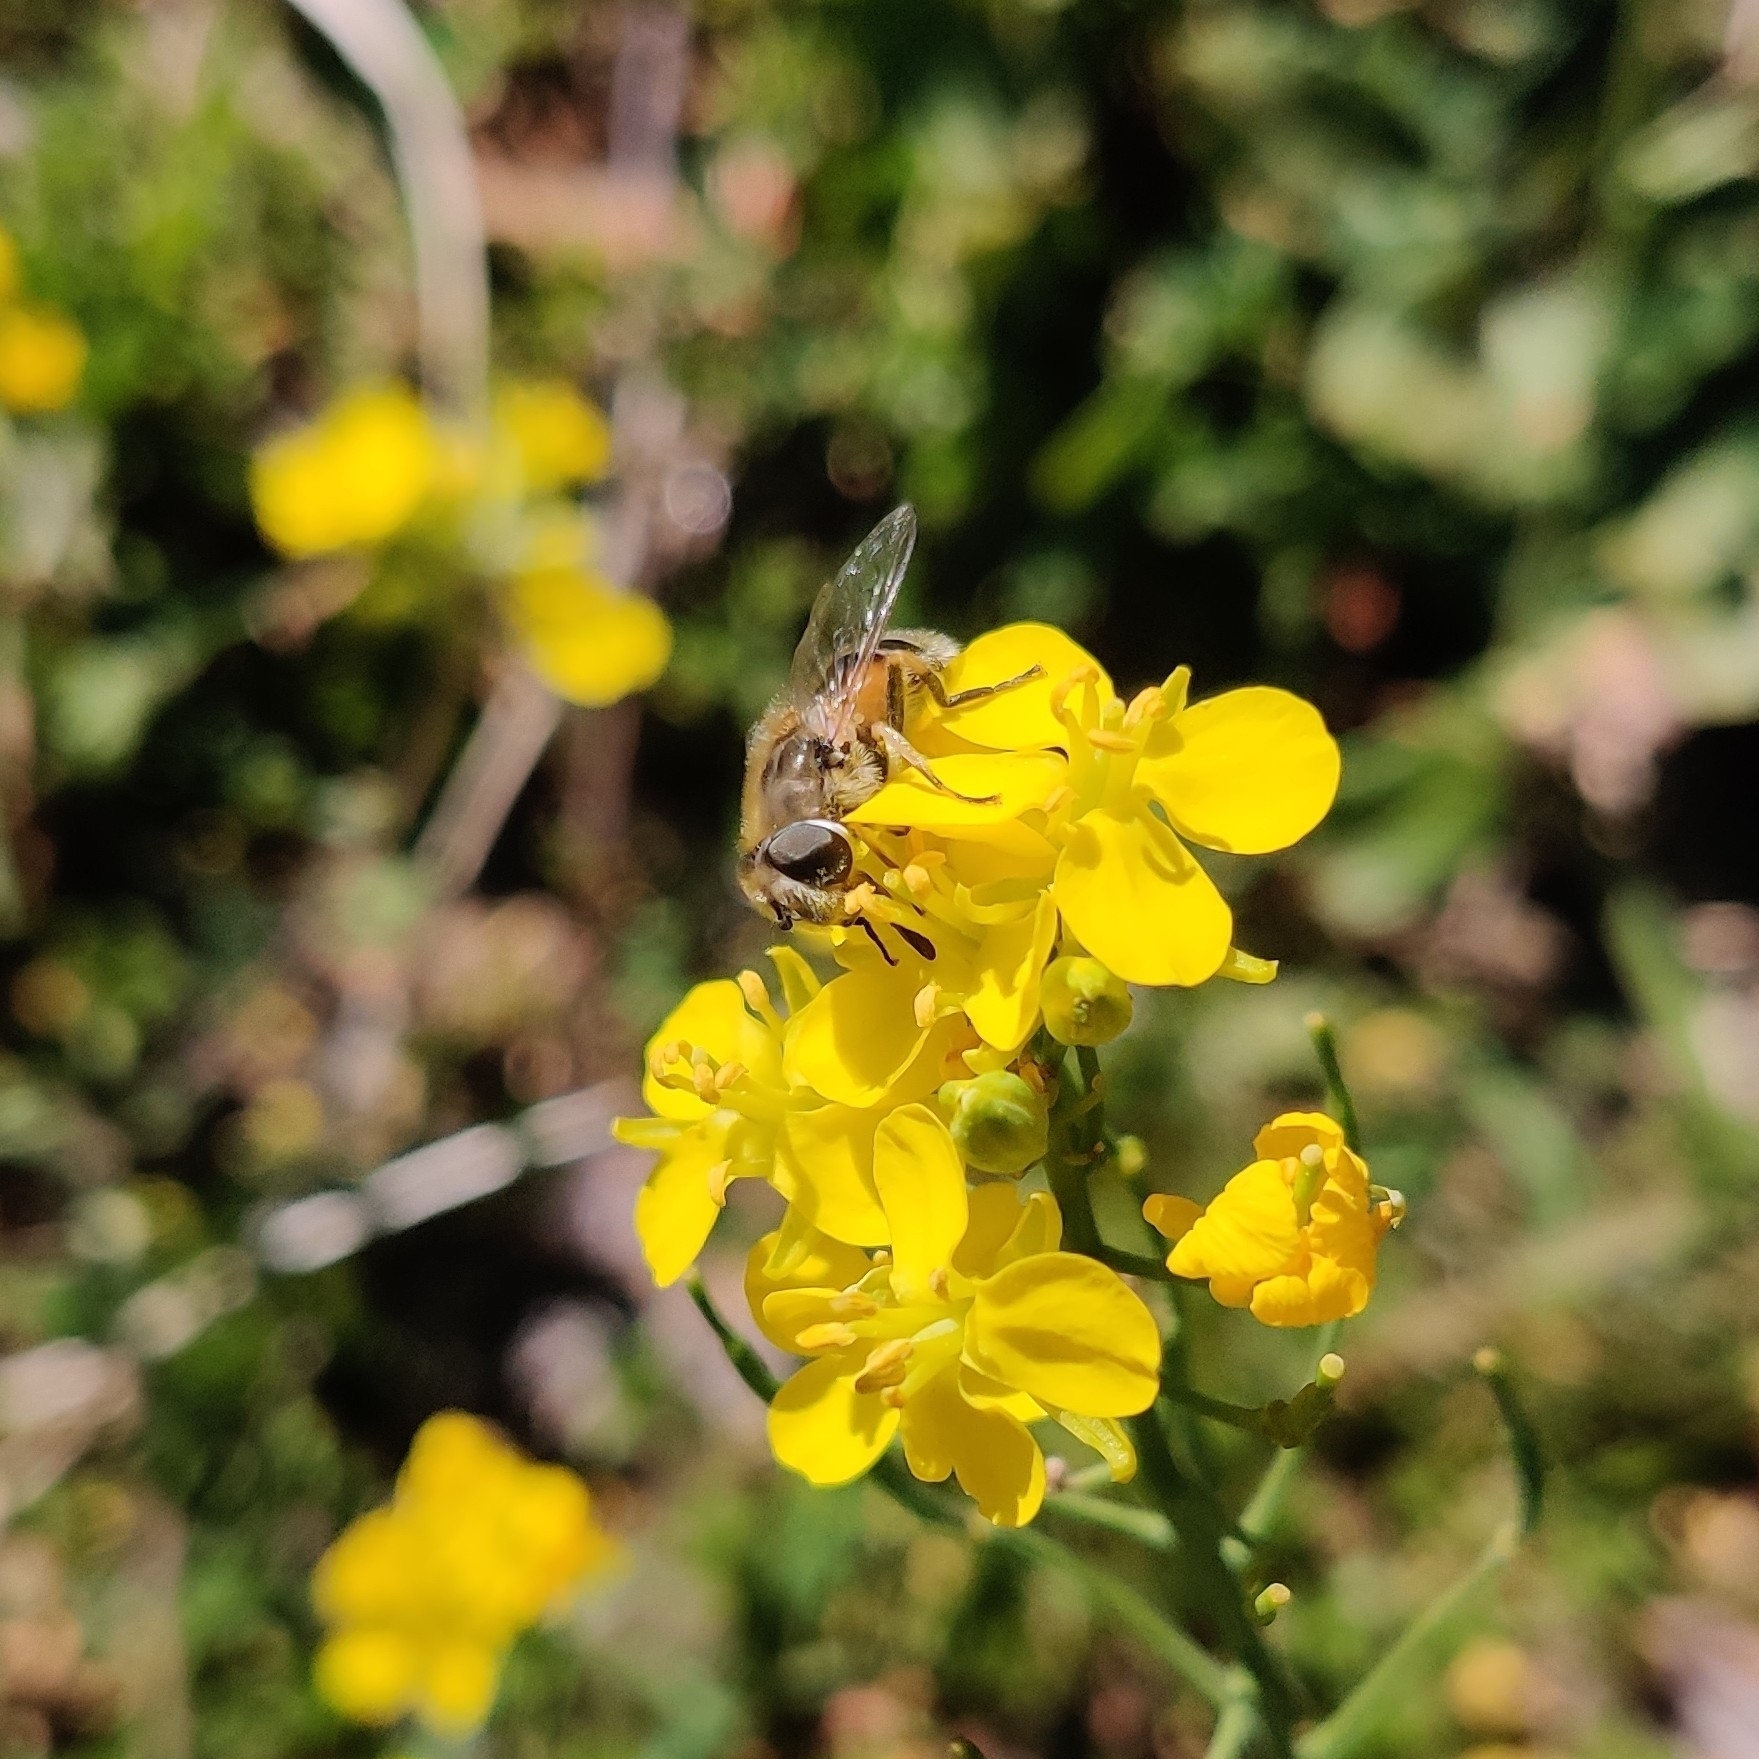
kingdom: Animalia
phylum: Arthropoda
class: Insecta
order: Diptera
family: Syrphidae
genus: Eristalis
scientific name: Eristalis arbustorum
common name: Hover fly
